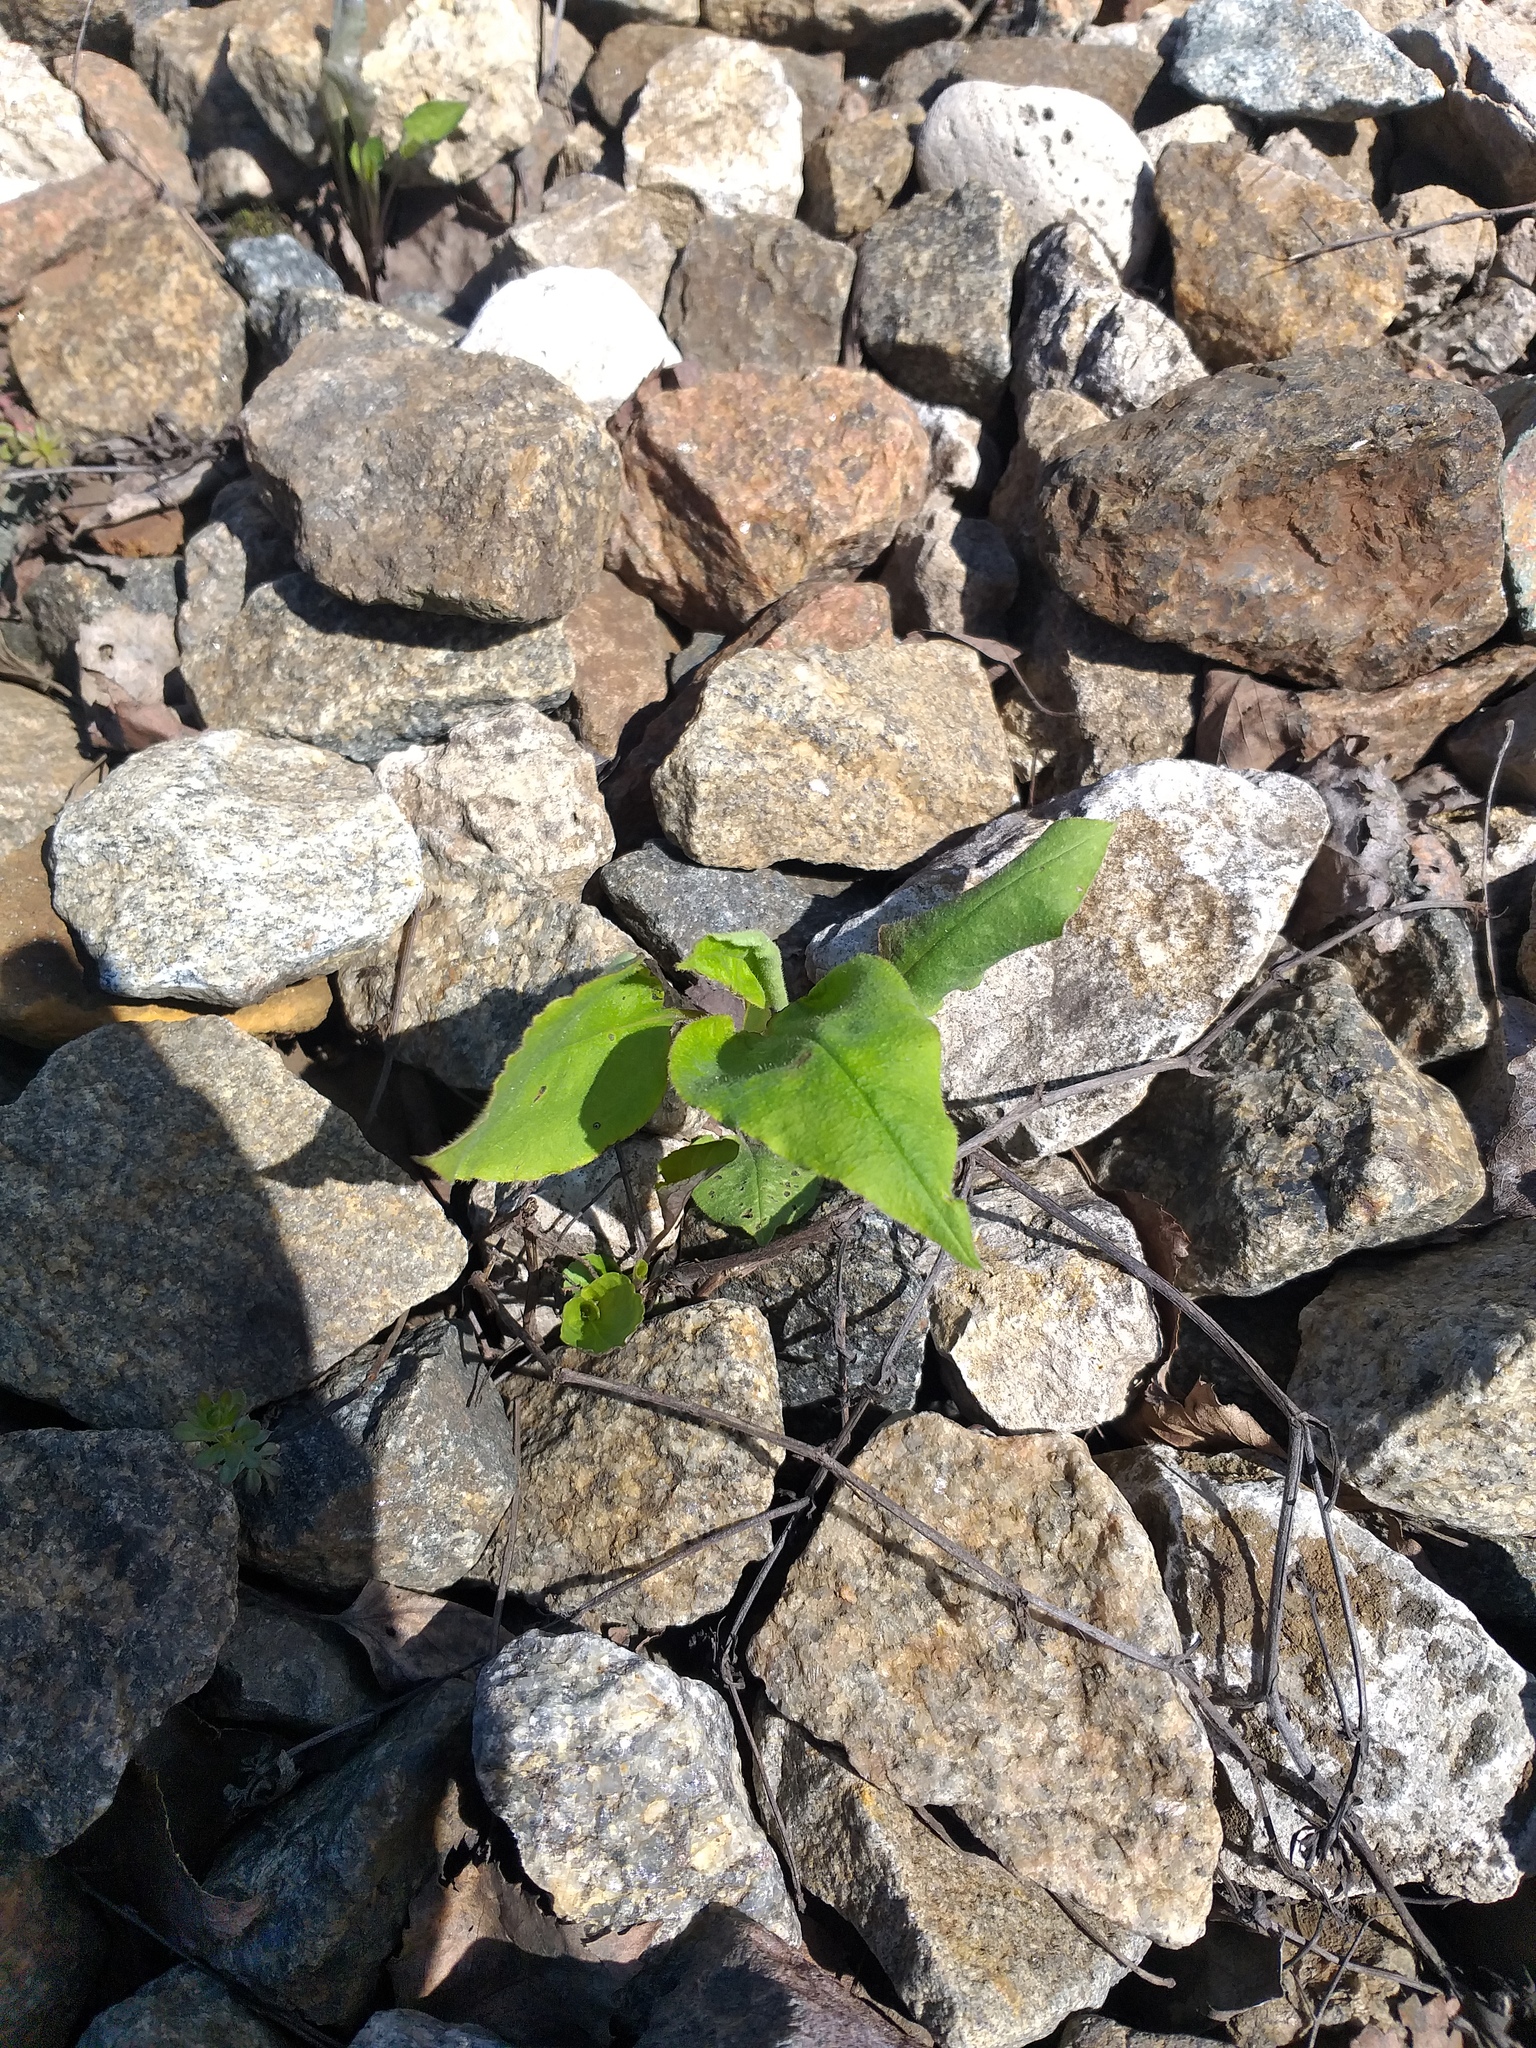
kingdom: Plantae
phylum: Tracheophyta
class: Magnoliopsida
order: Boraginales
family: Boraginaceae
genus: Pulmonaria
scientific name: Pulmonaria obscura
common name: Suffolk lungwort
